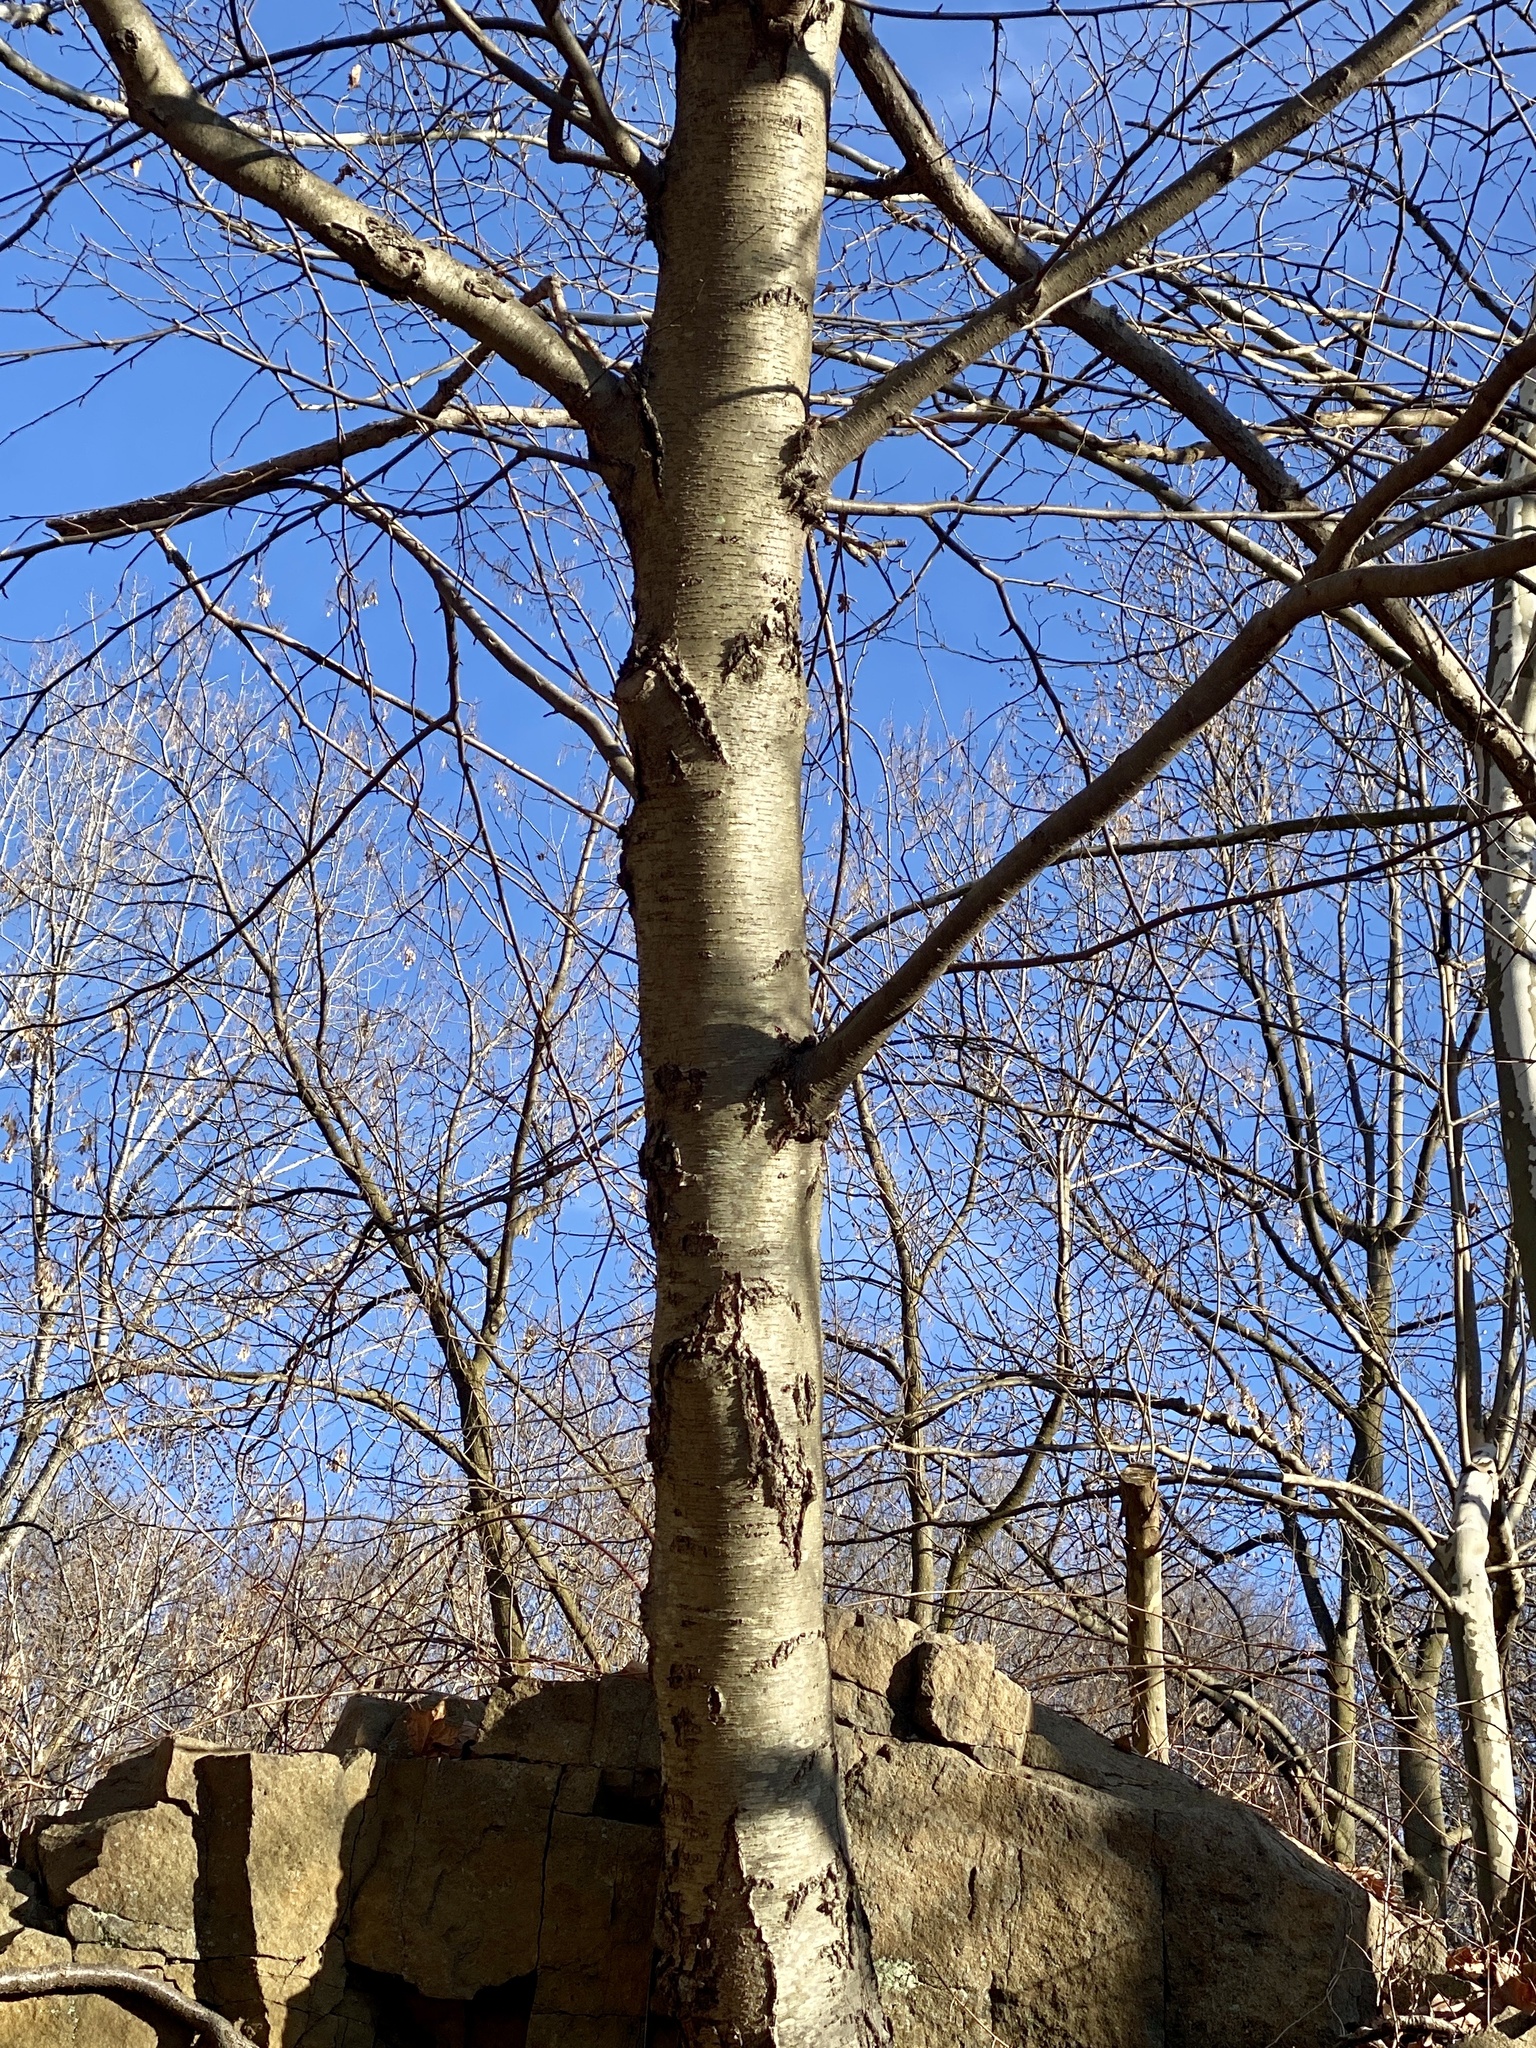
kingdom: Plantae
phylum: Tracheophyta
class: Magnoliopsida
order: Fagales
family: Betulaceae
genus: Betula
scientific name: Betula lenta
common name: Black birch
